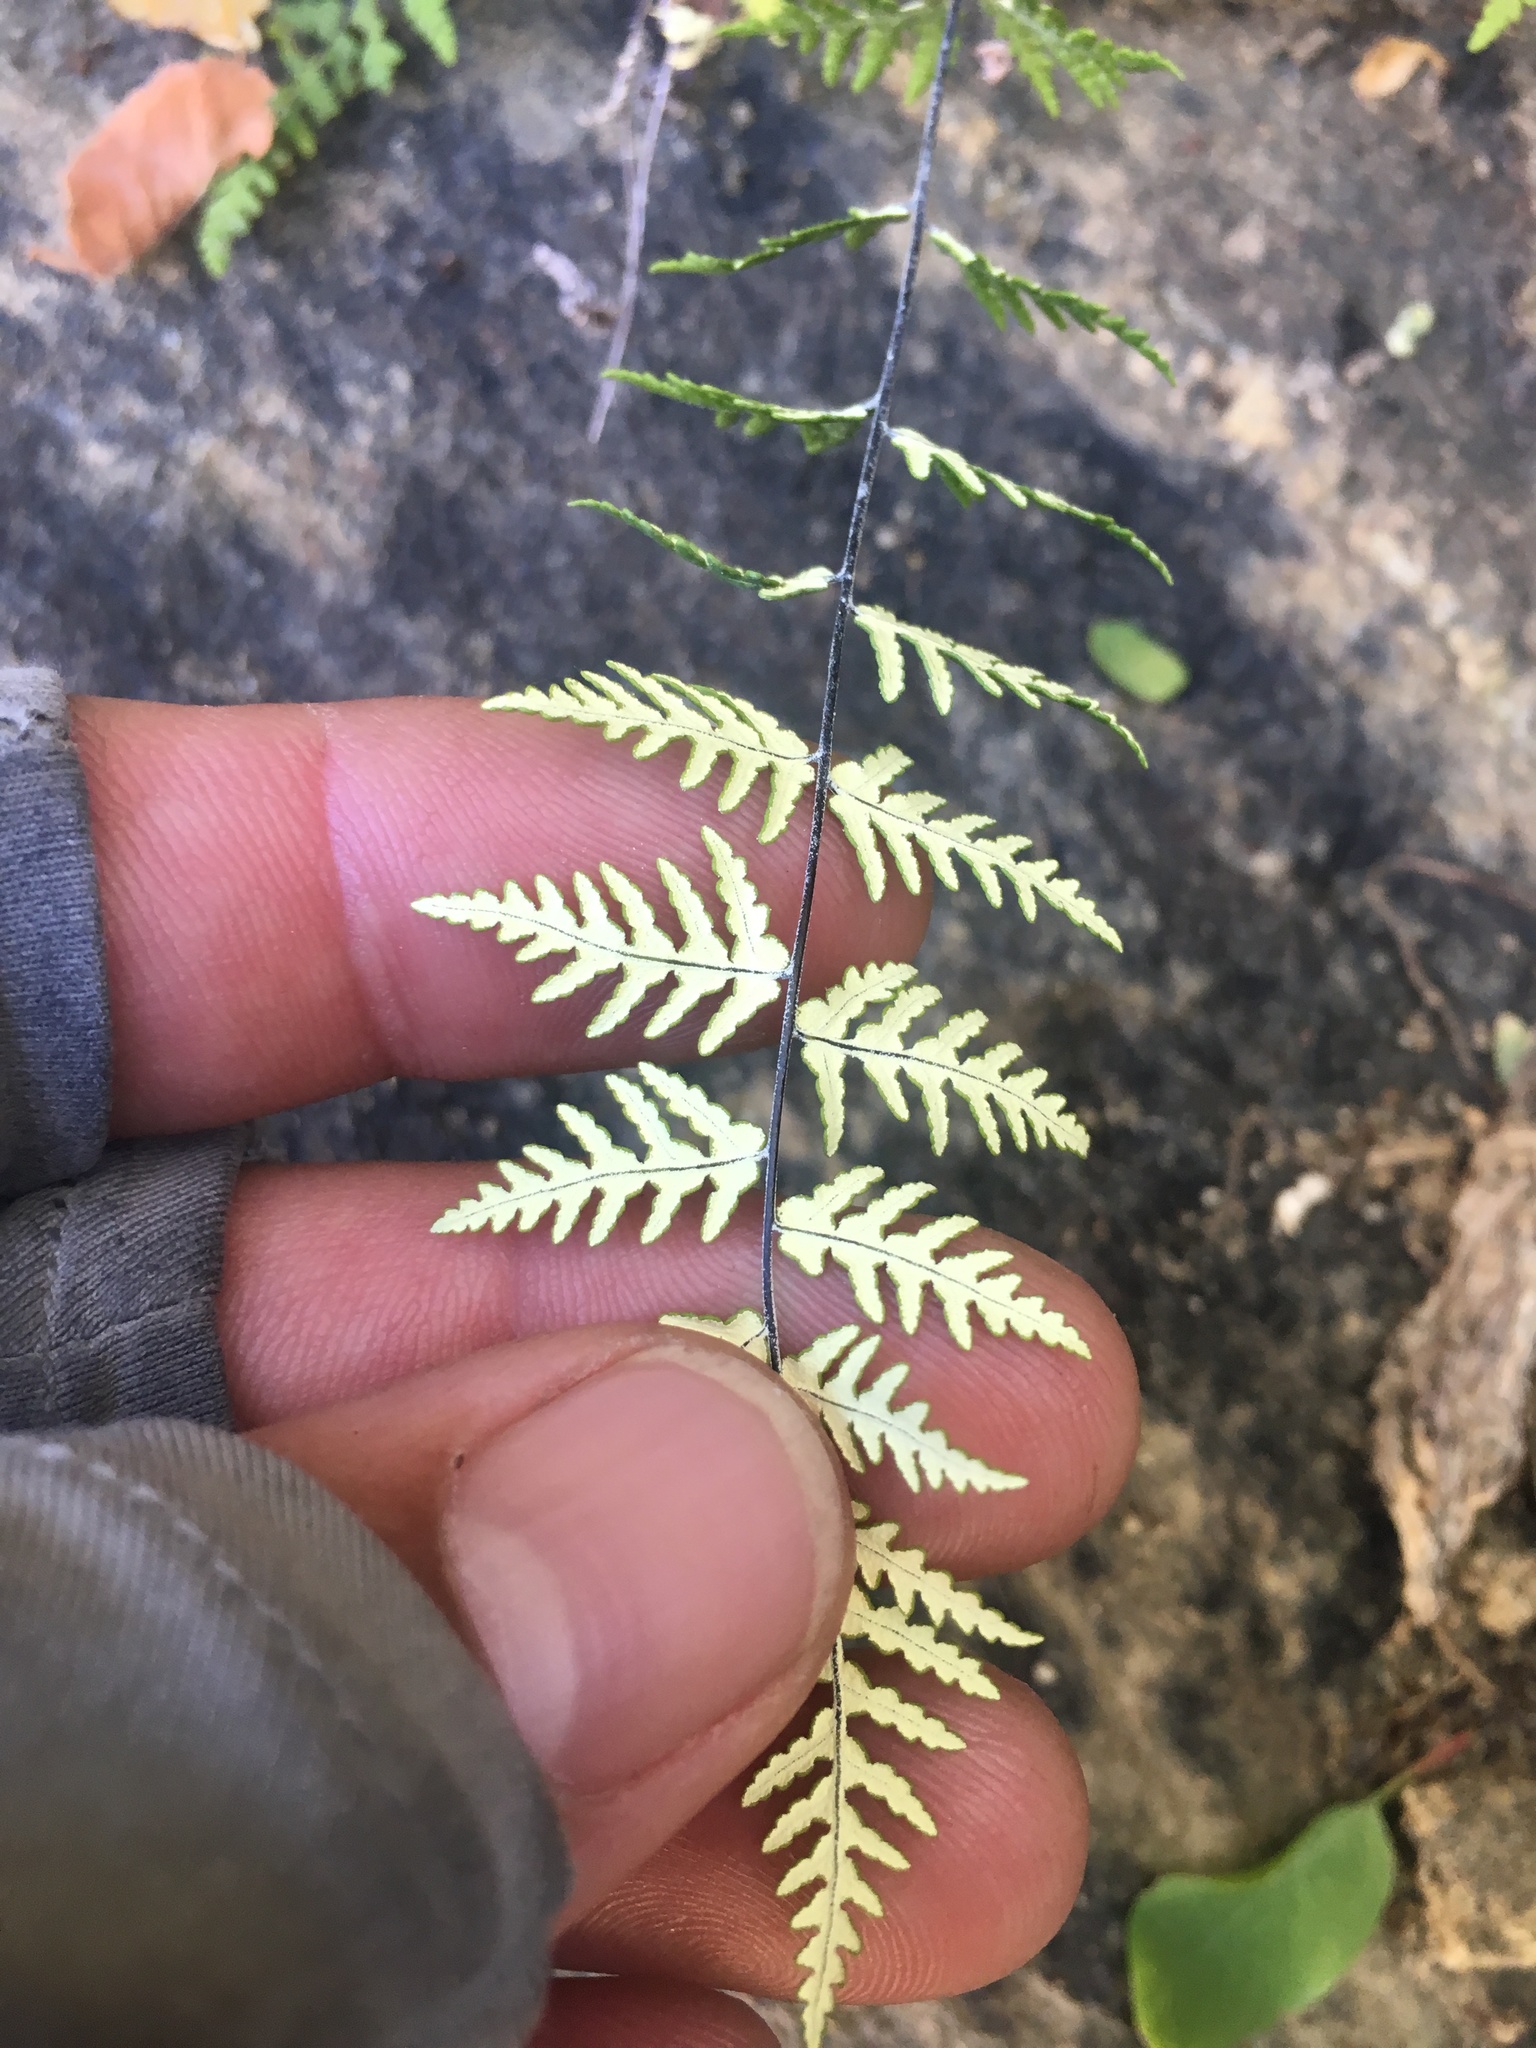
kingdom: Plantae
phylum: Tracheophyta
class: Polypodiopsida
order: Polypodiales
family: Pteridaceae
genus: Notholaena
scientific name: Notholaena lemmonii
